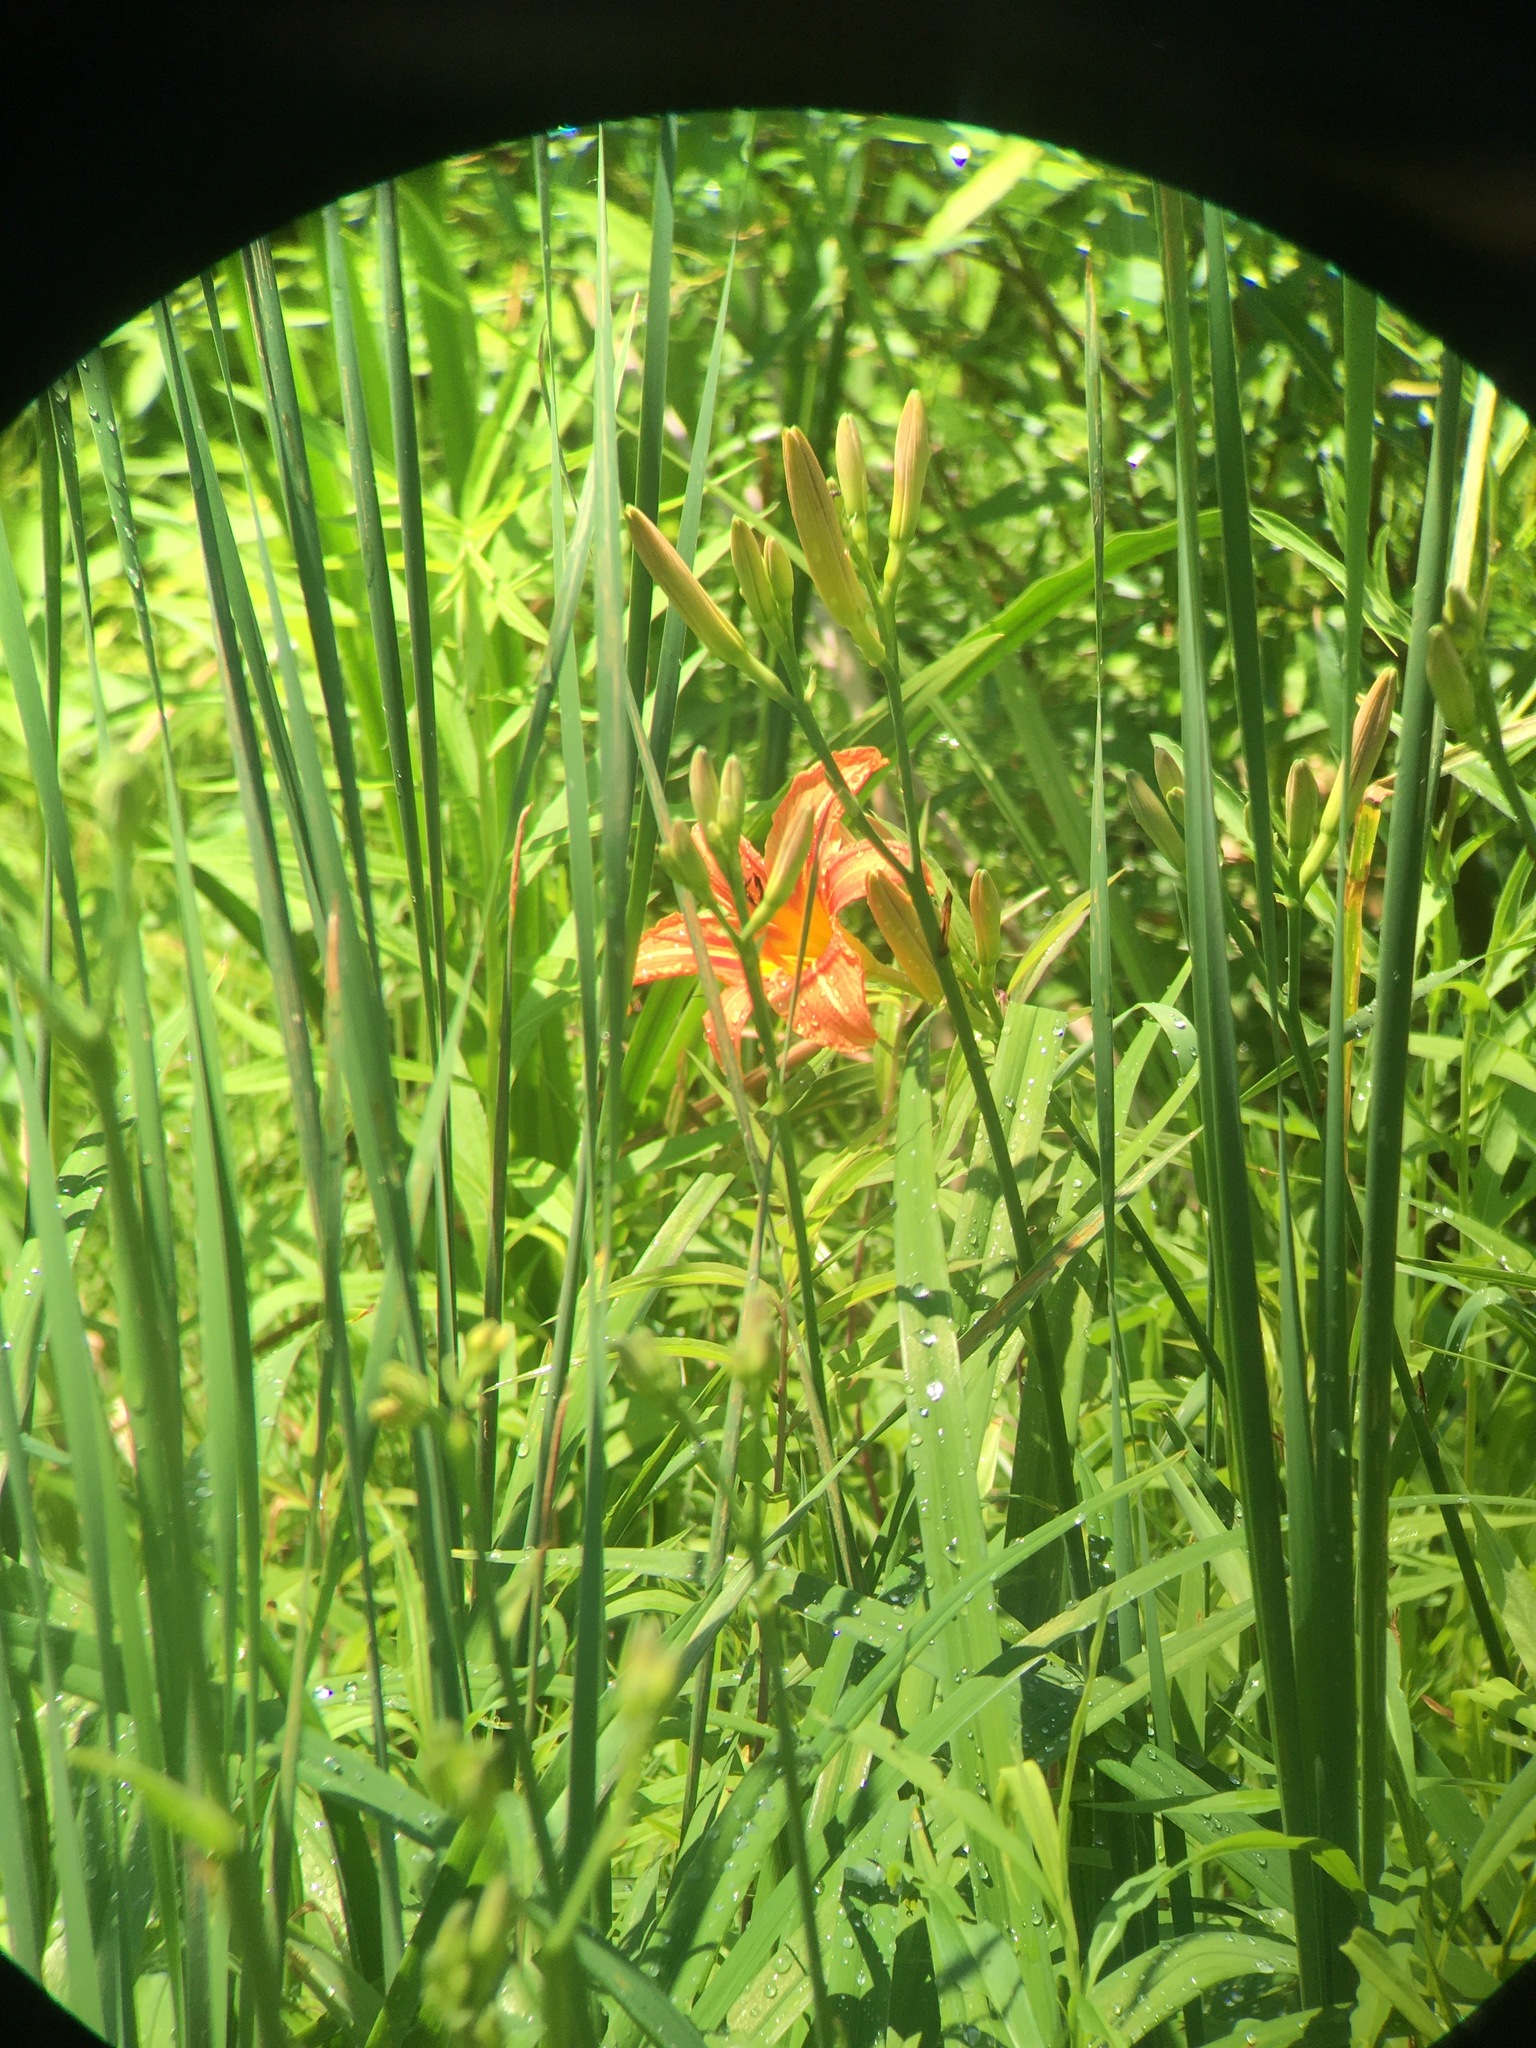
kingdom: Plantae
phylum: Tracheophyta
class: Liliopsida
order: Asparagales
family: Asphodelaceae
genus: Hemerocallis
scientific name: Hemerocallis fulva
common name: Orange day-lily
